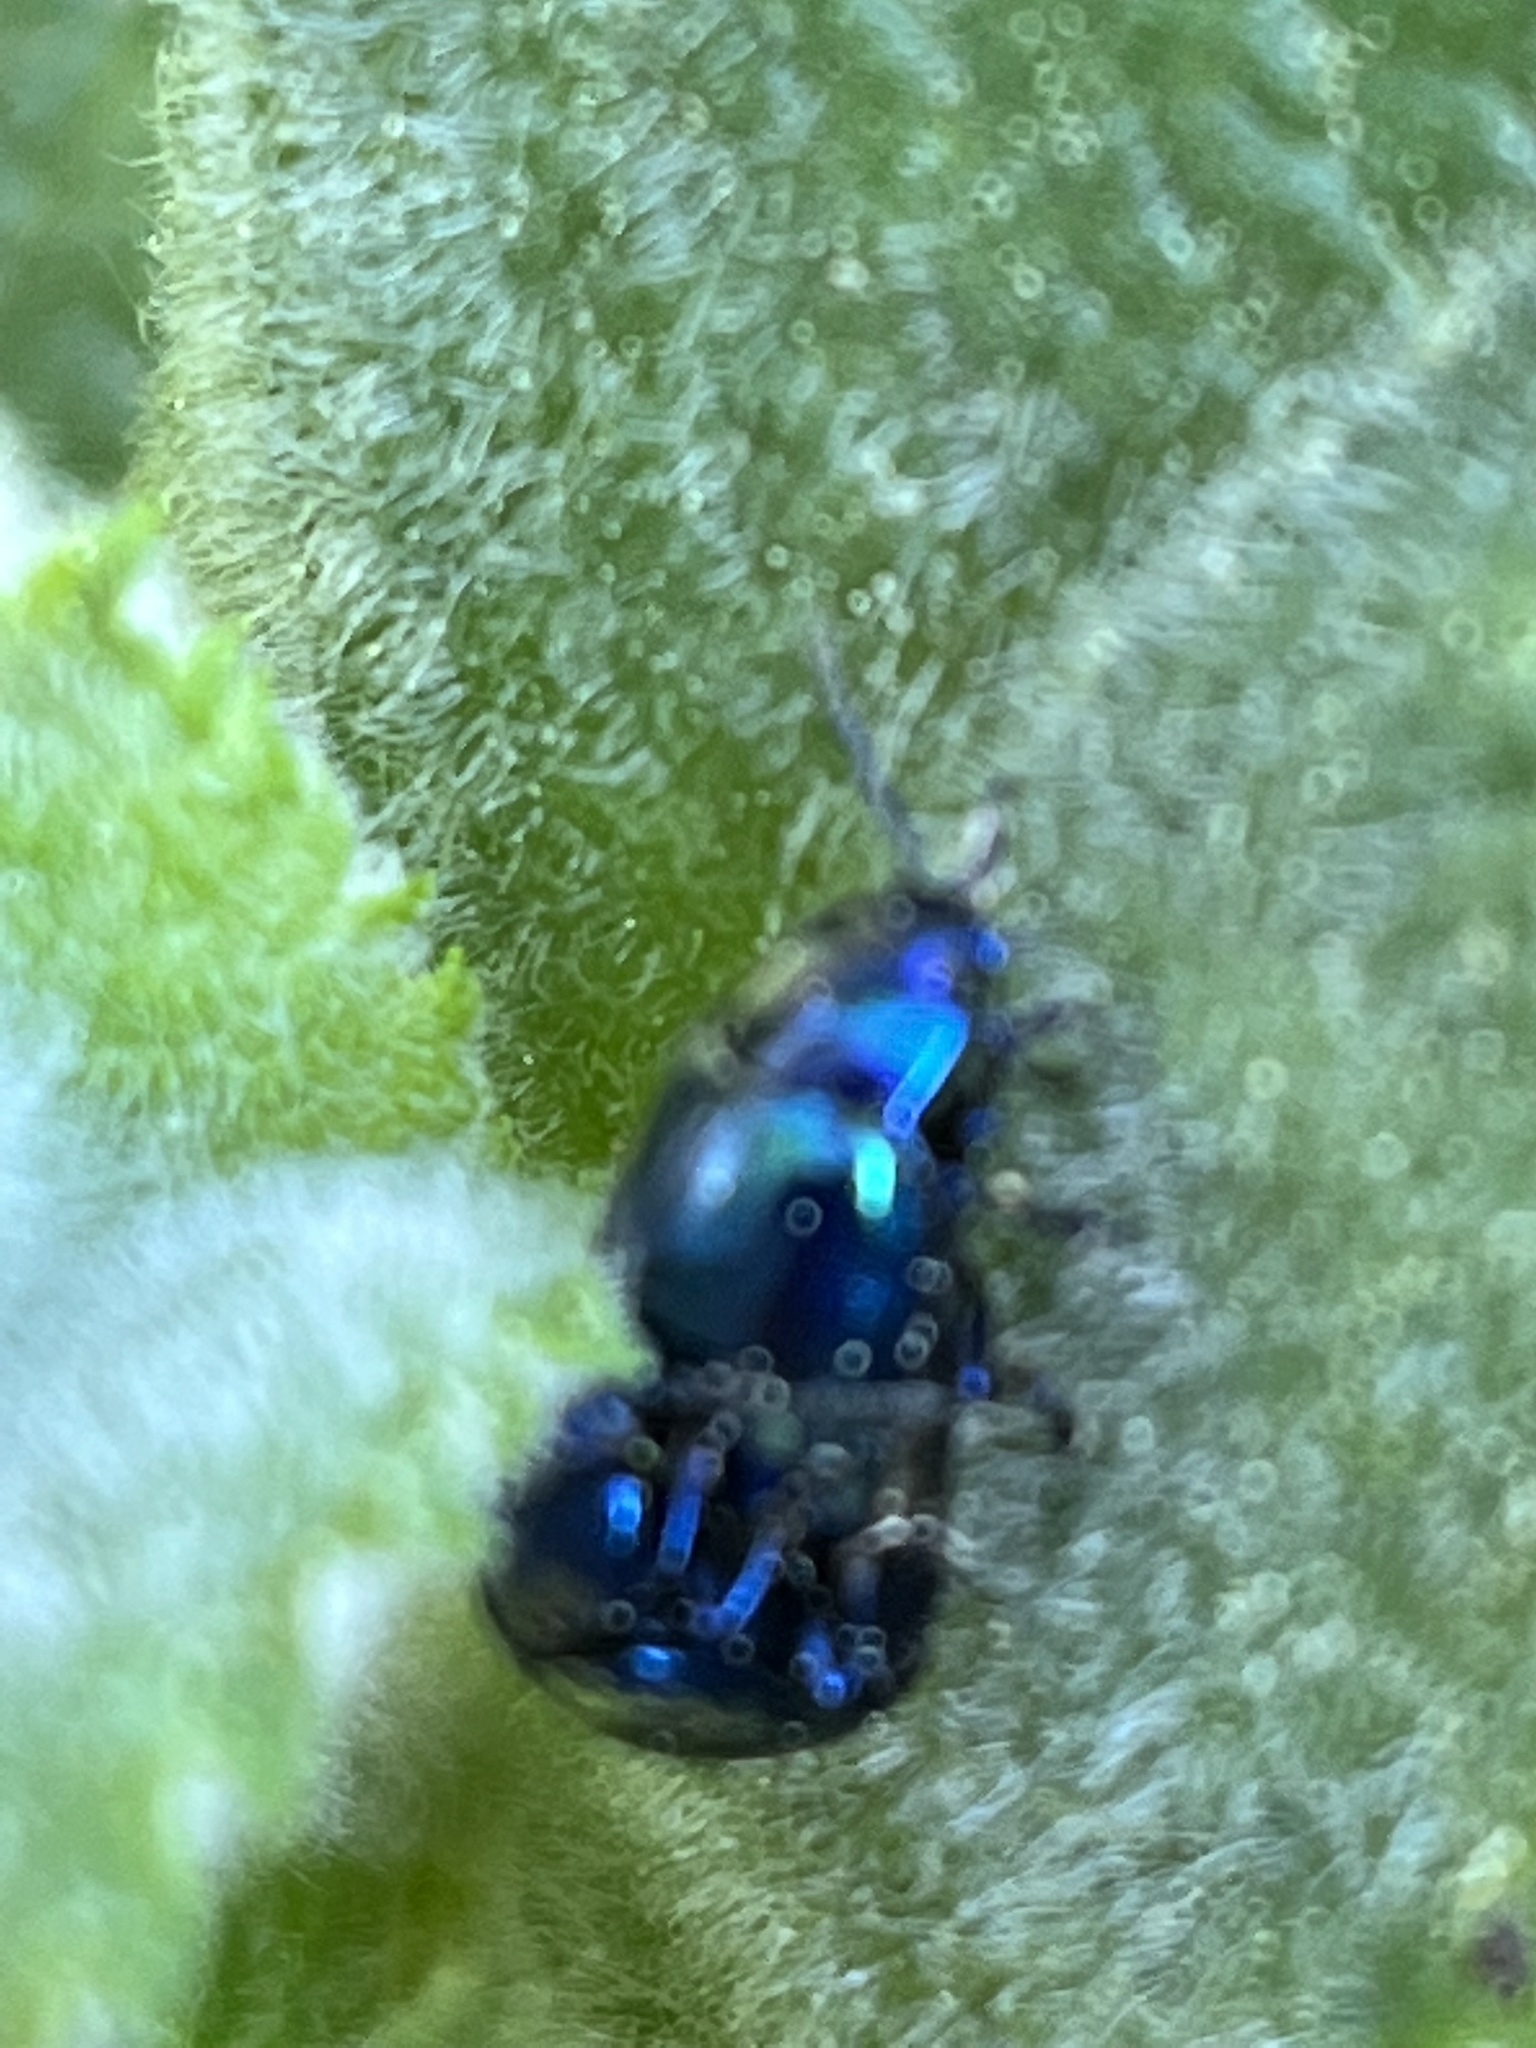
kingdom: Animalia
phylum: Arthropoda
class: Insecta
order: Coleoptera
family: Chrysomelidae
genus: Chrysolina
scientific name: Chrysolina coerulans
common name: Blue mint beetle
